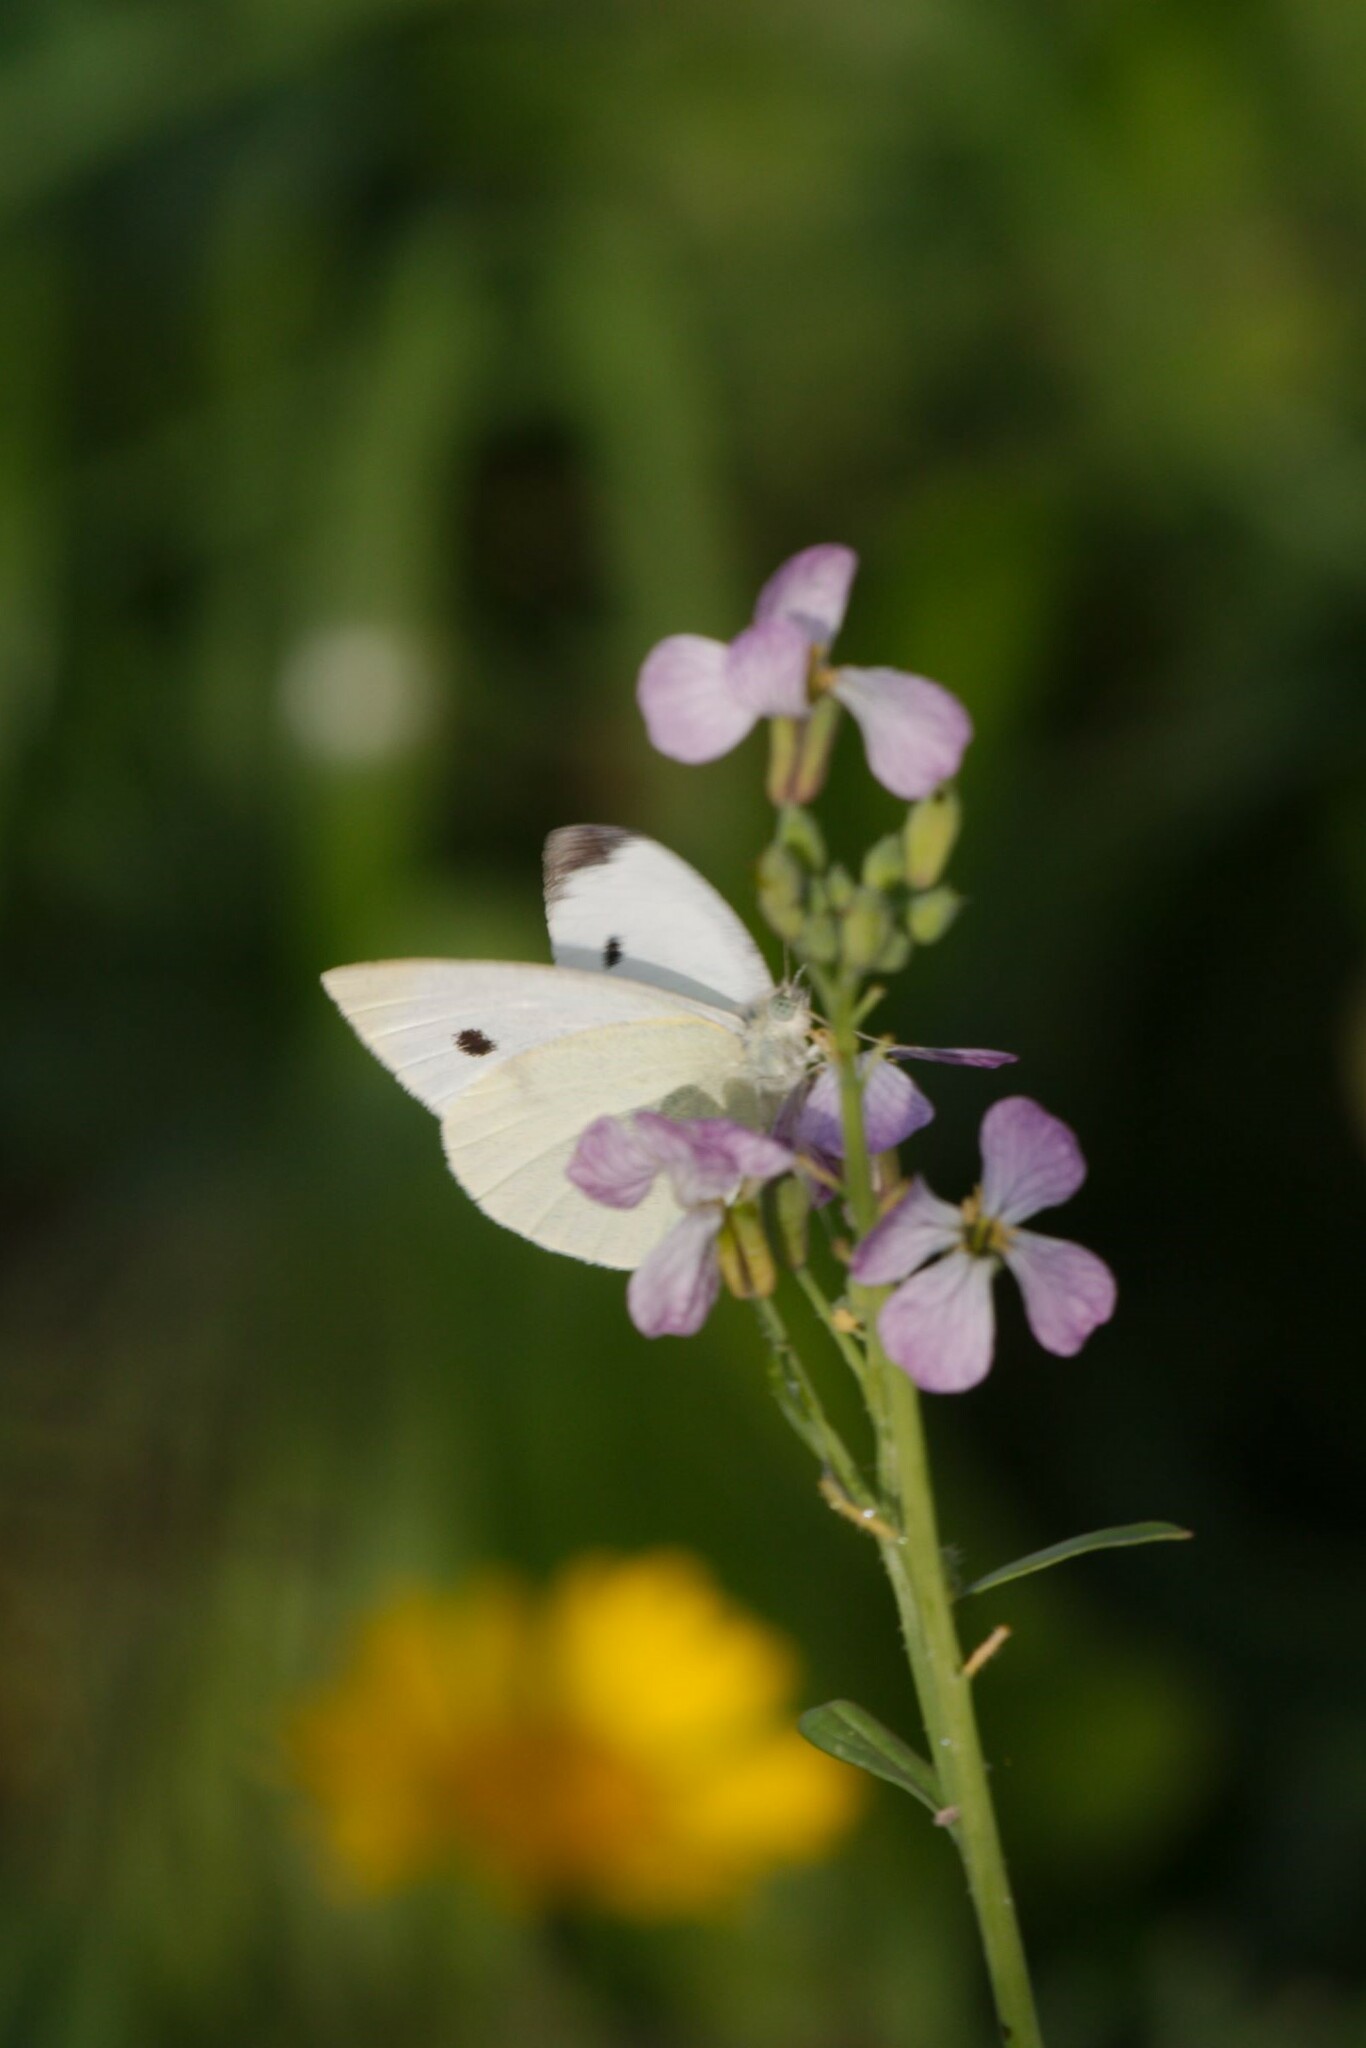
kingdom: Animalia
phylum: Arthropoda
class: Insecta
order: Lepidoptera
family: Pieridae
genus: Pieris
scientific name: Pieris rapae
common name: Small white
